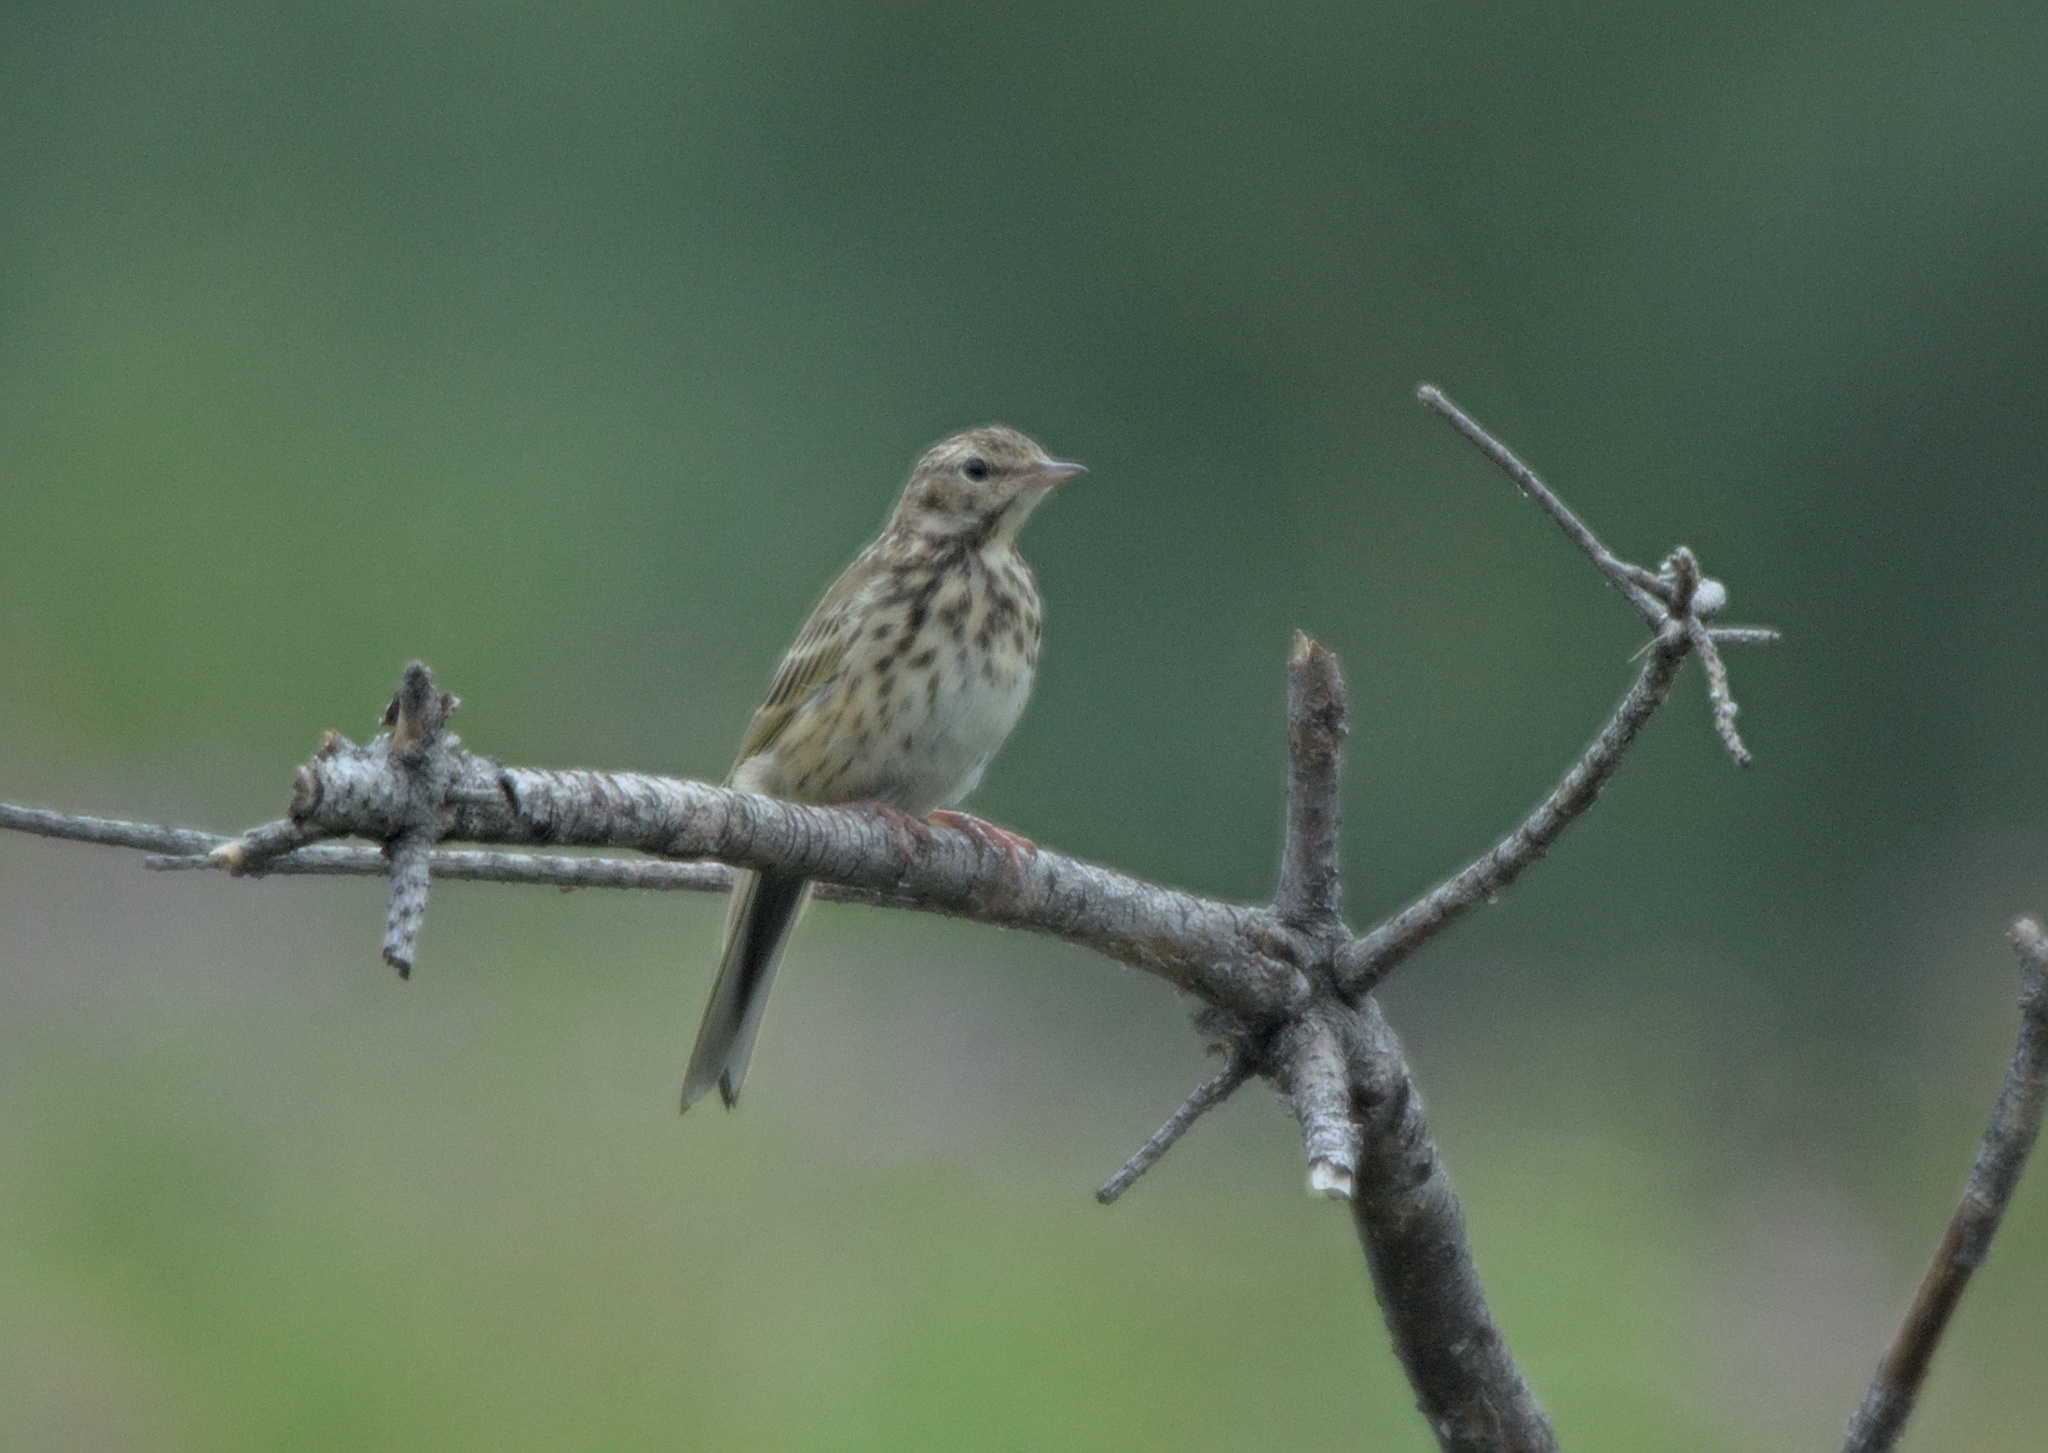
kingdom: Animalia
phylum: Chordata
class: Aves
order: Passeriformes
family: Motacillidae
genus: Anthus
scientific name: Anthus trivialis
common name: Tree pipit
